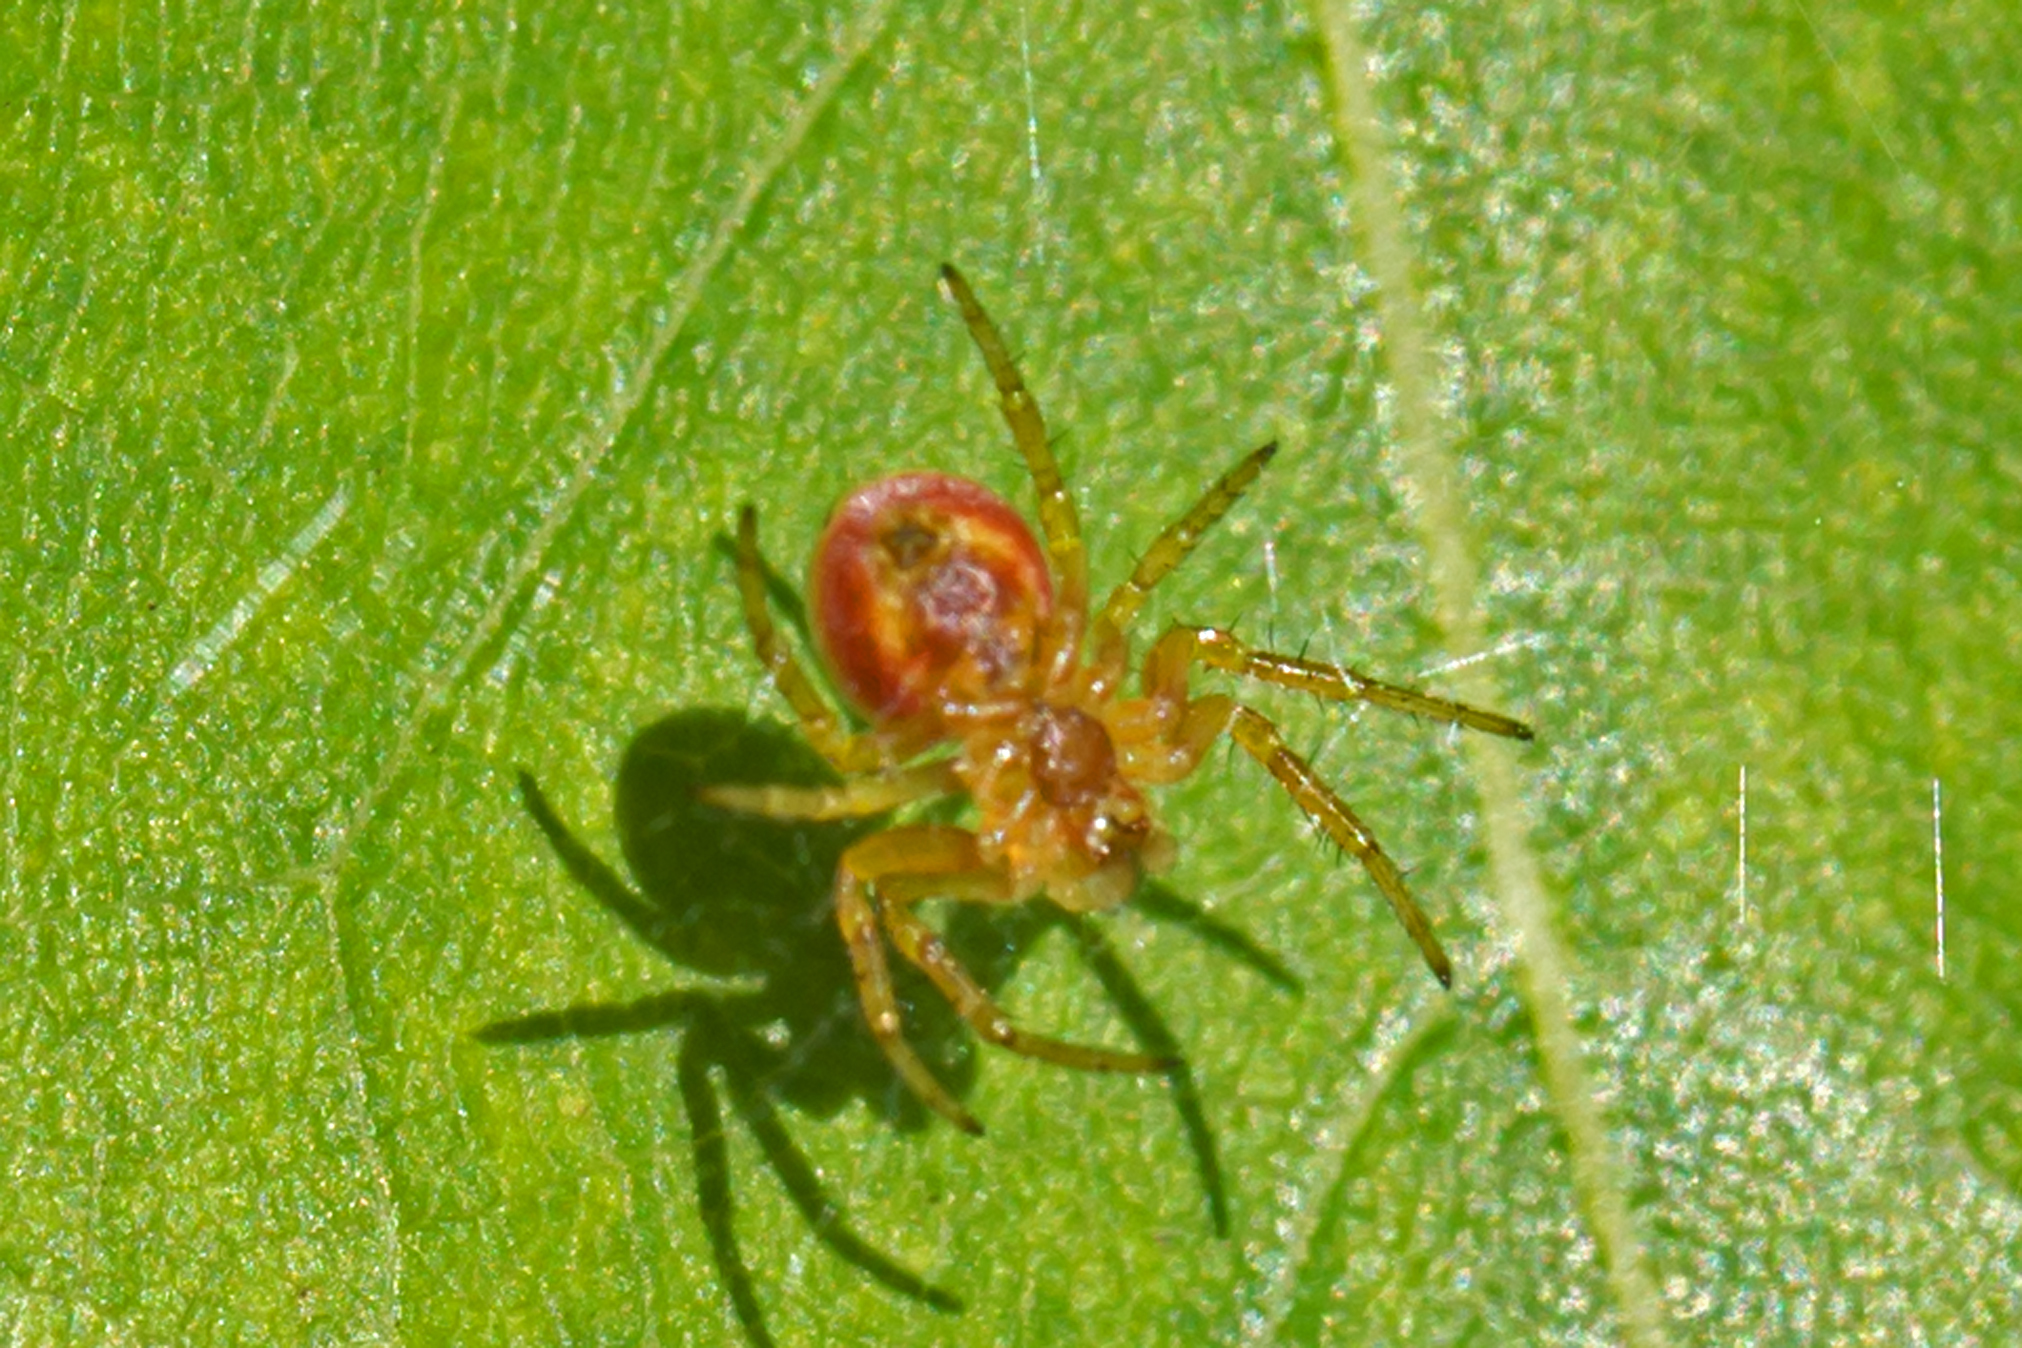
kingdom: Animalia
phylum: Arthropoda
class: Arachnida
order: Araneae
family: Araneidae
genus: Araniella
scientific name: Araniella displicata
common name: Sixspotted orb weaver
